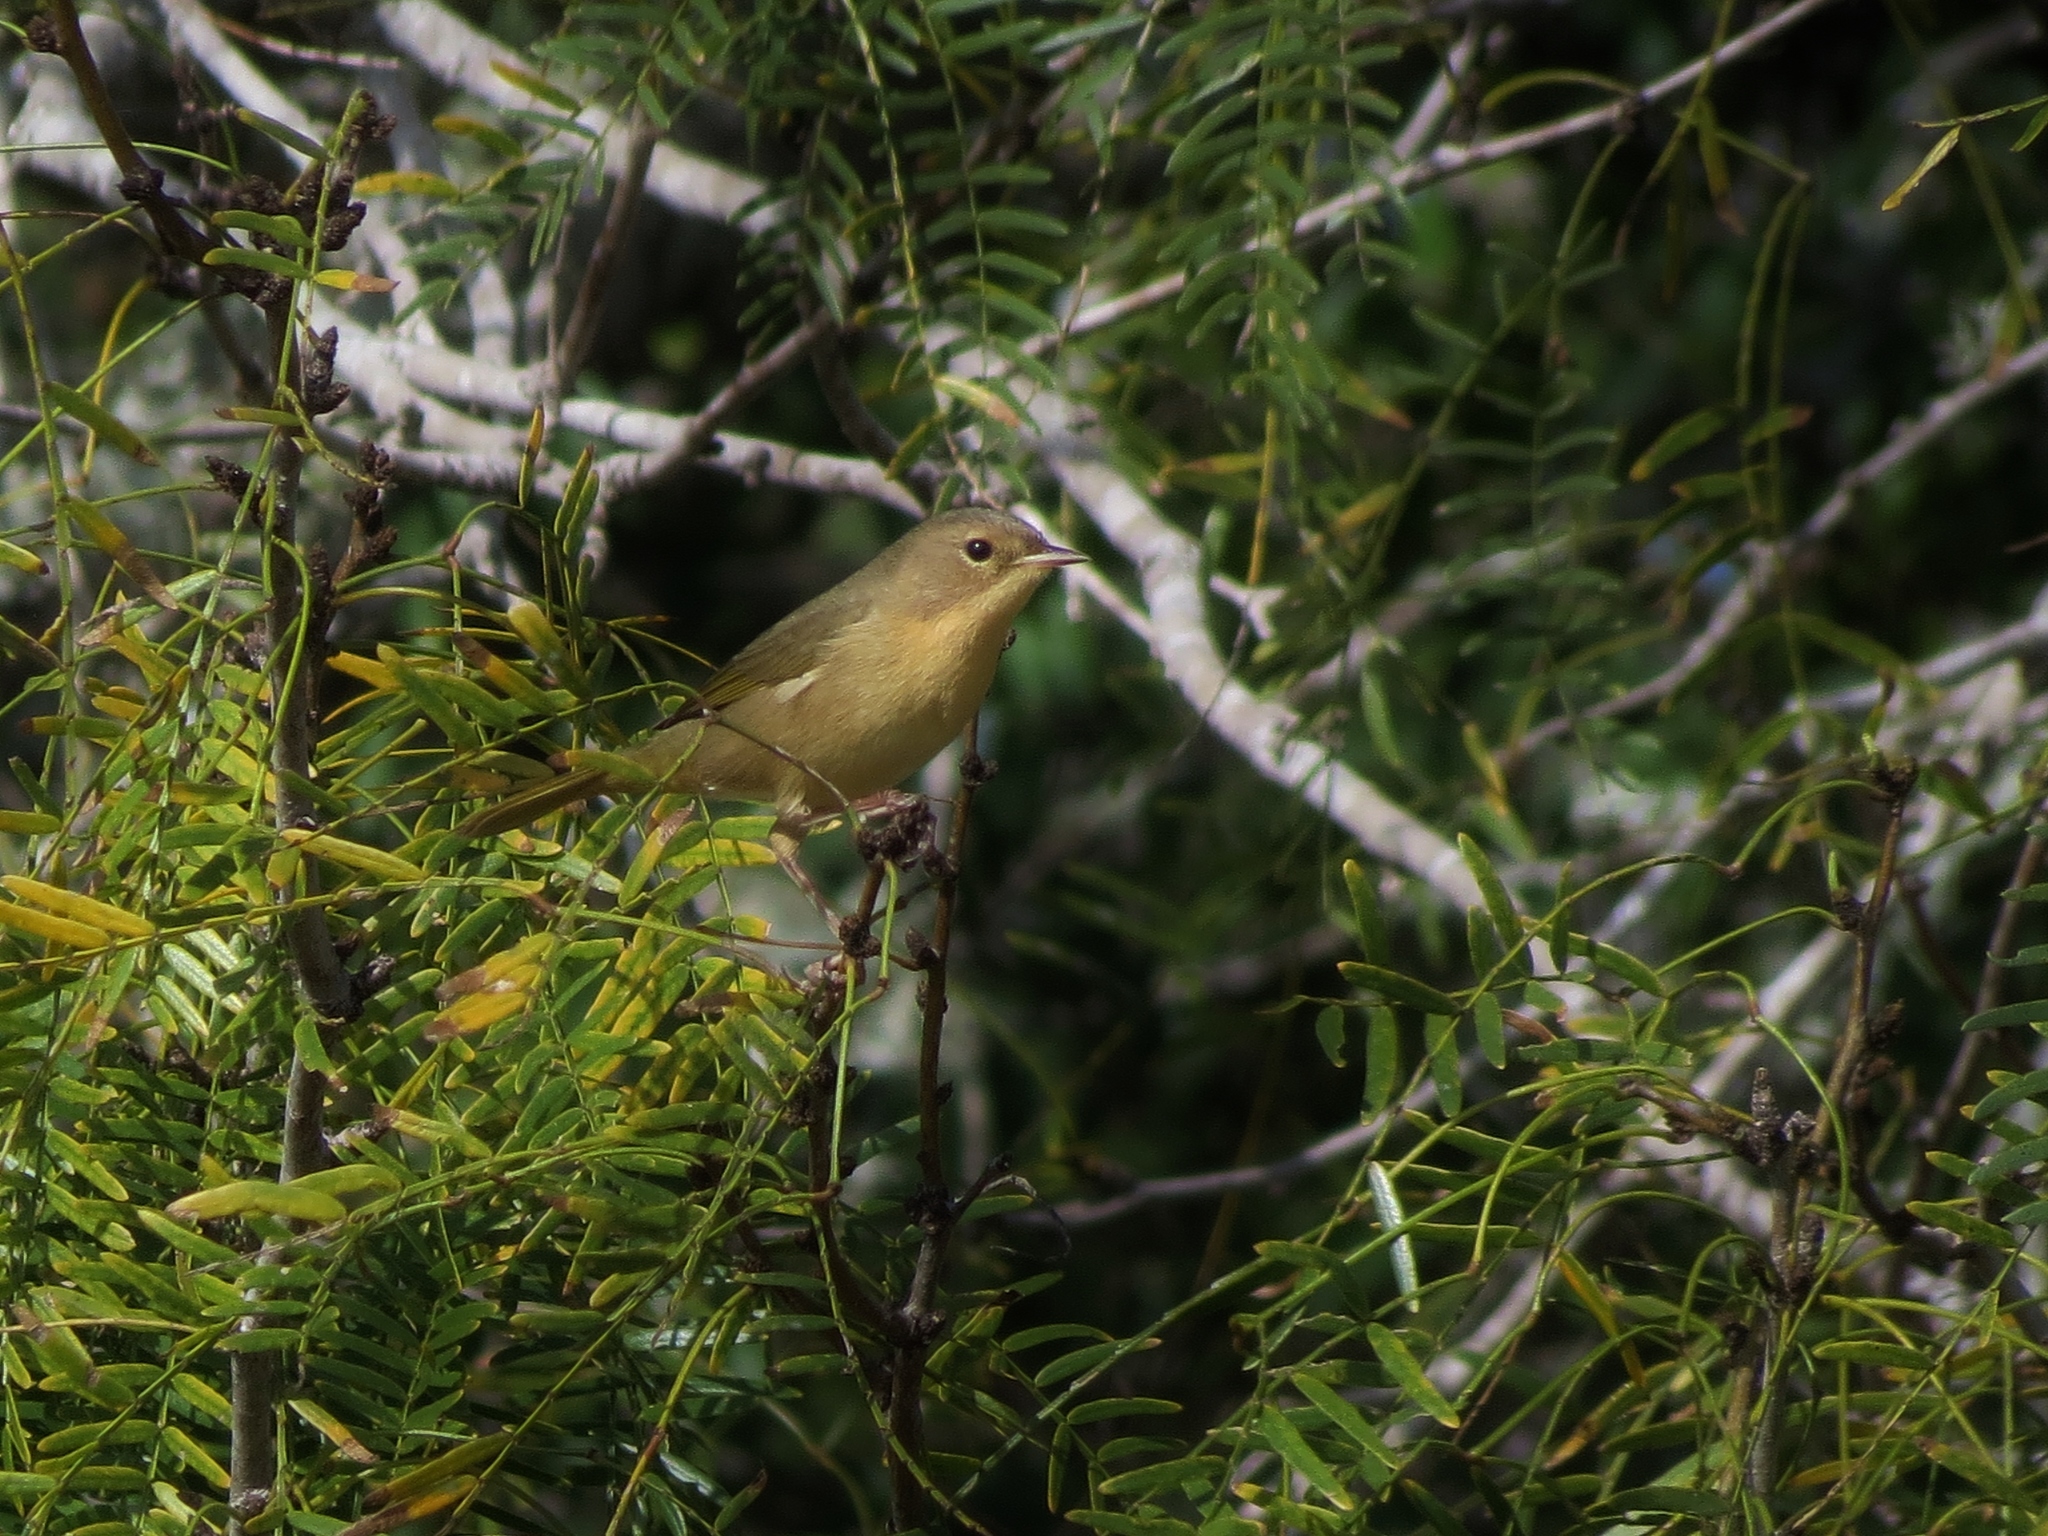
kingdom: Animalia
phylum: Chordata
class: Aves
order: Passeriformes
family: Parulidae
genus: Geothlypis
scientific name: Geothlypis trichas
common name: Common yellowthroat
